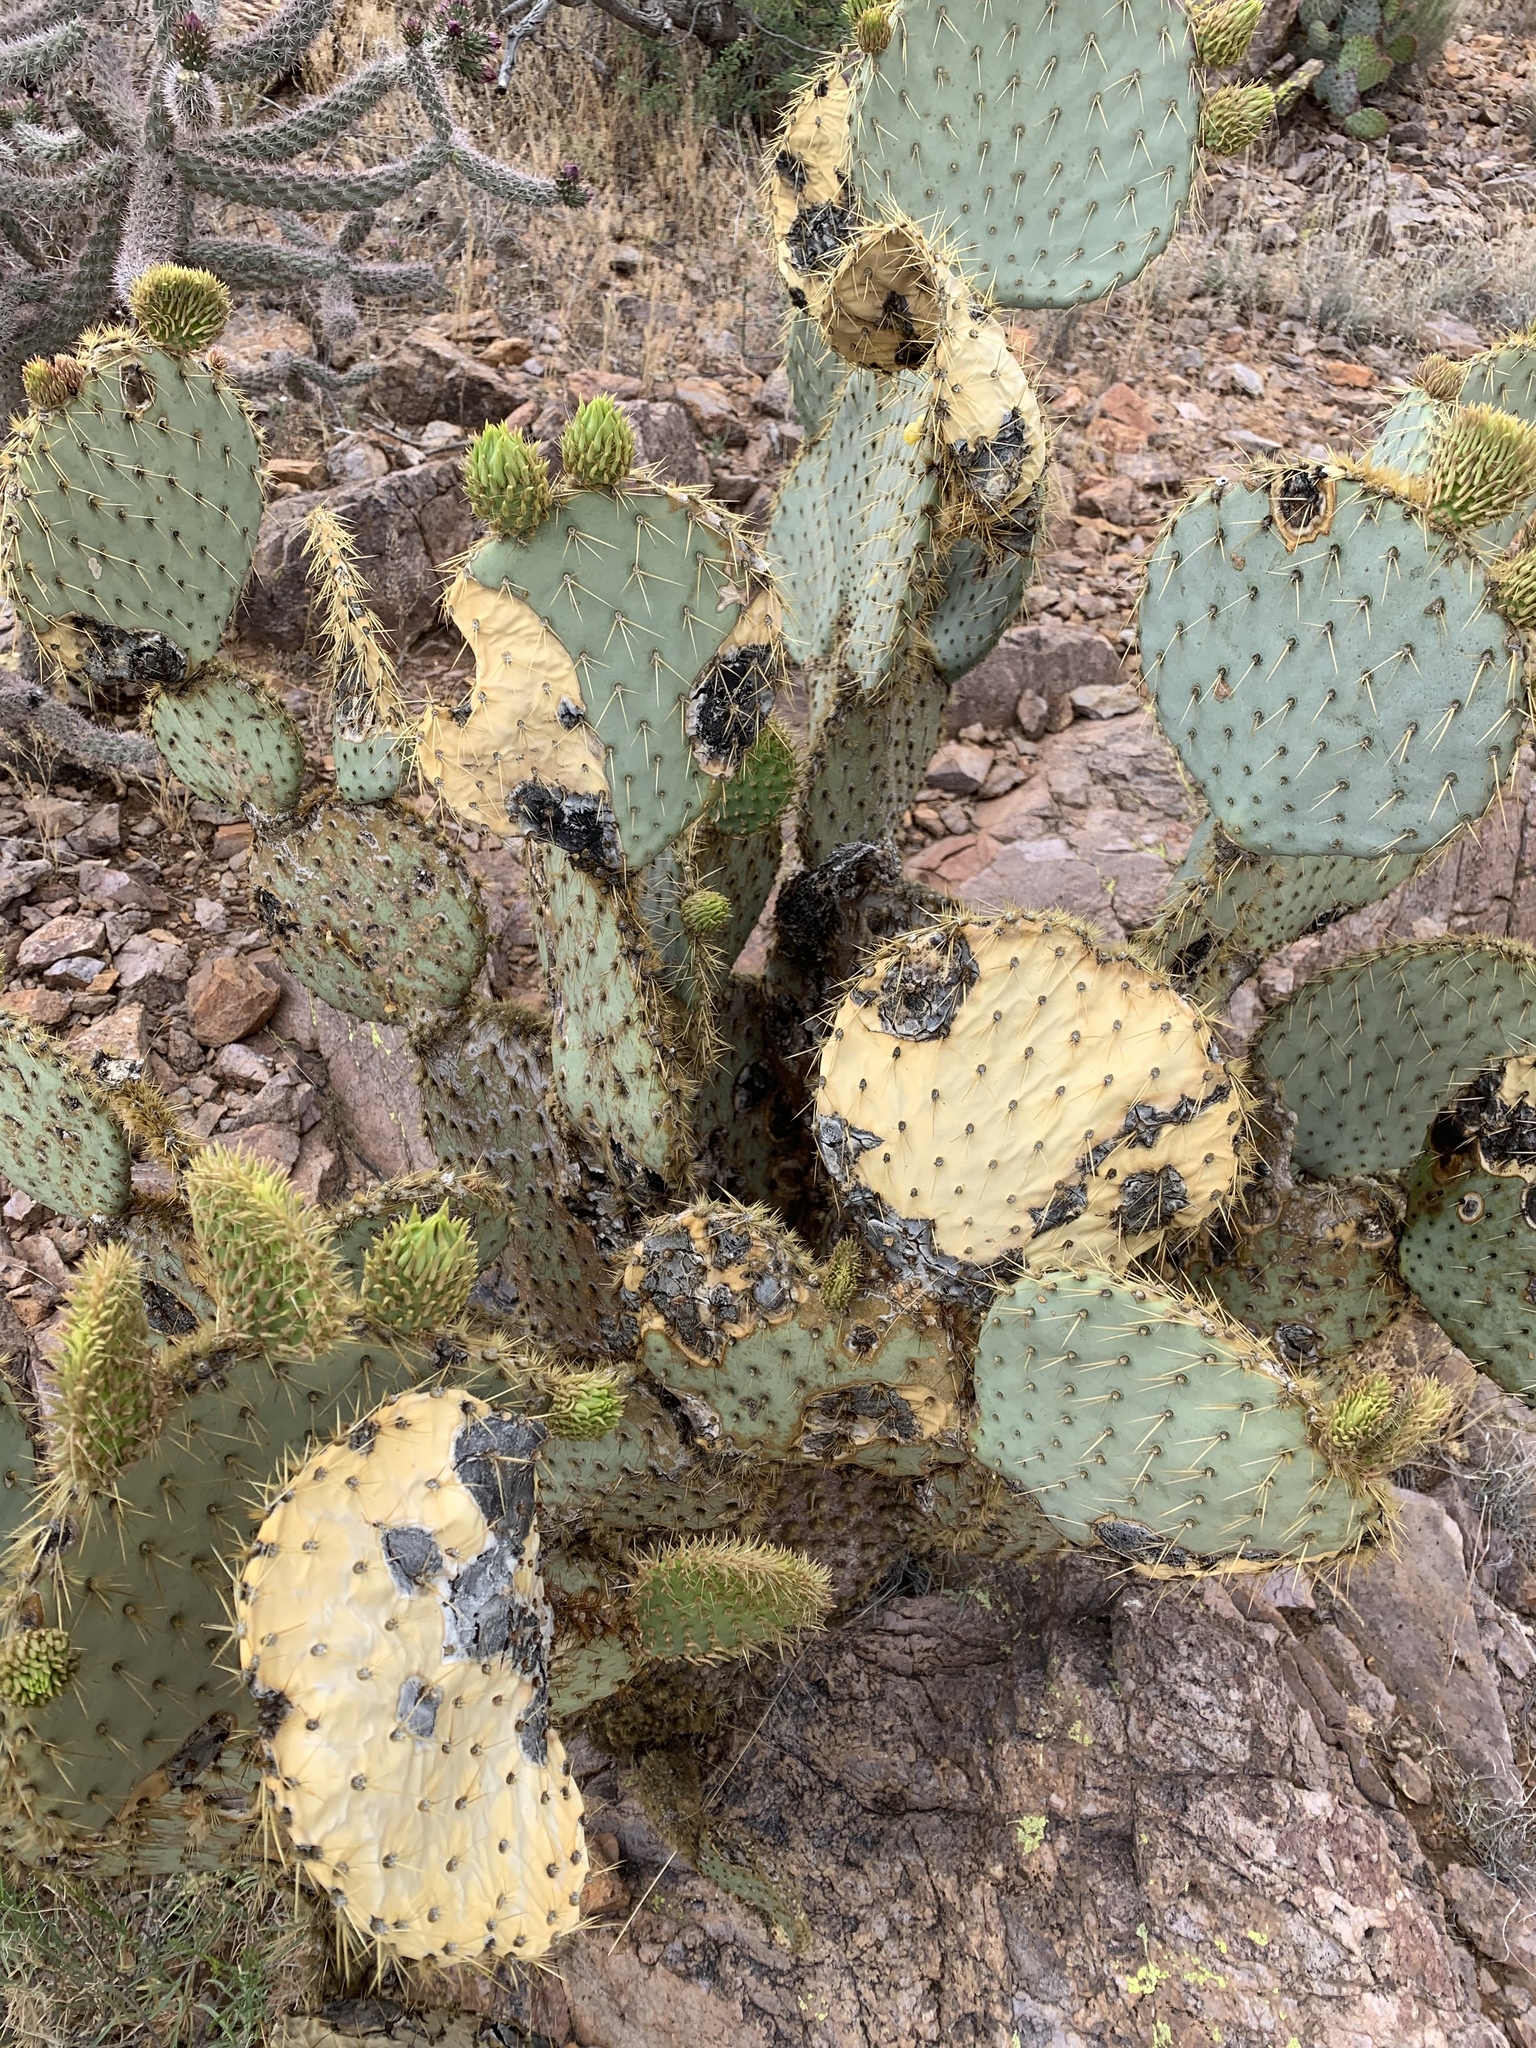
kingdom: Plantae
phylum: Tracheophyta
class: Magnoliopsida
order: Caryophyllales
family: Cactaceae
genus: Opuntia
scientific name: Opuntia chlorotica
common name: Dollar-joint prickly-pear
